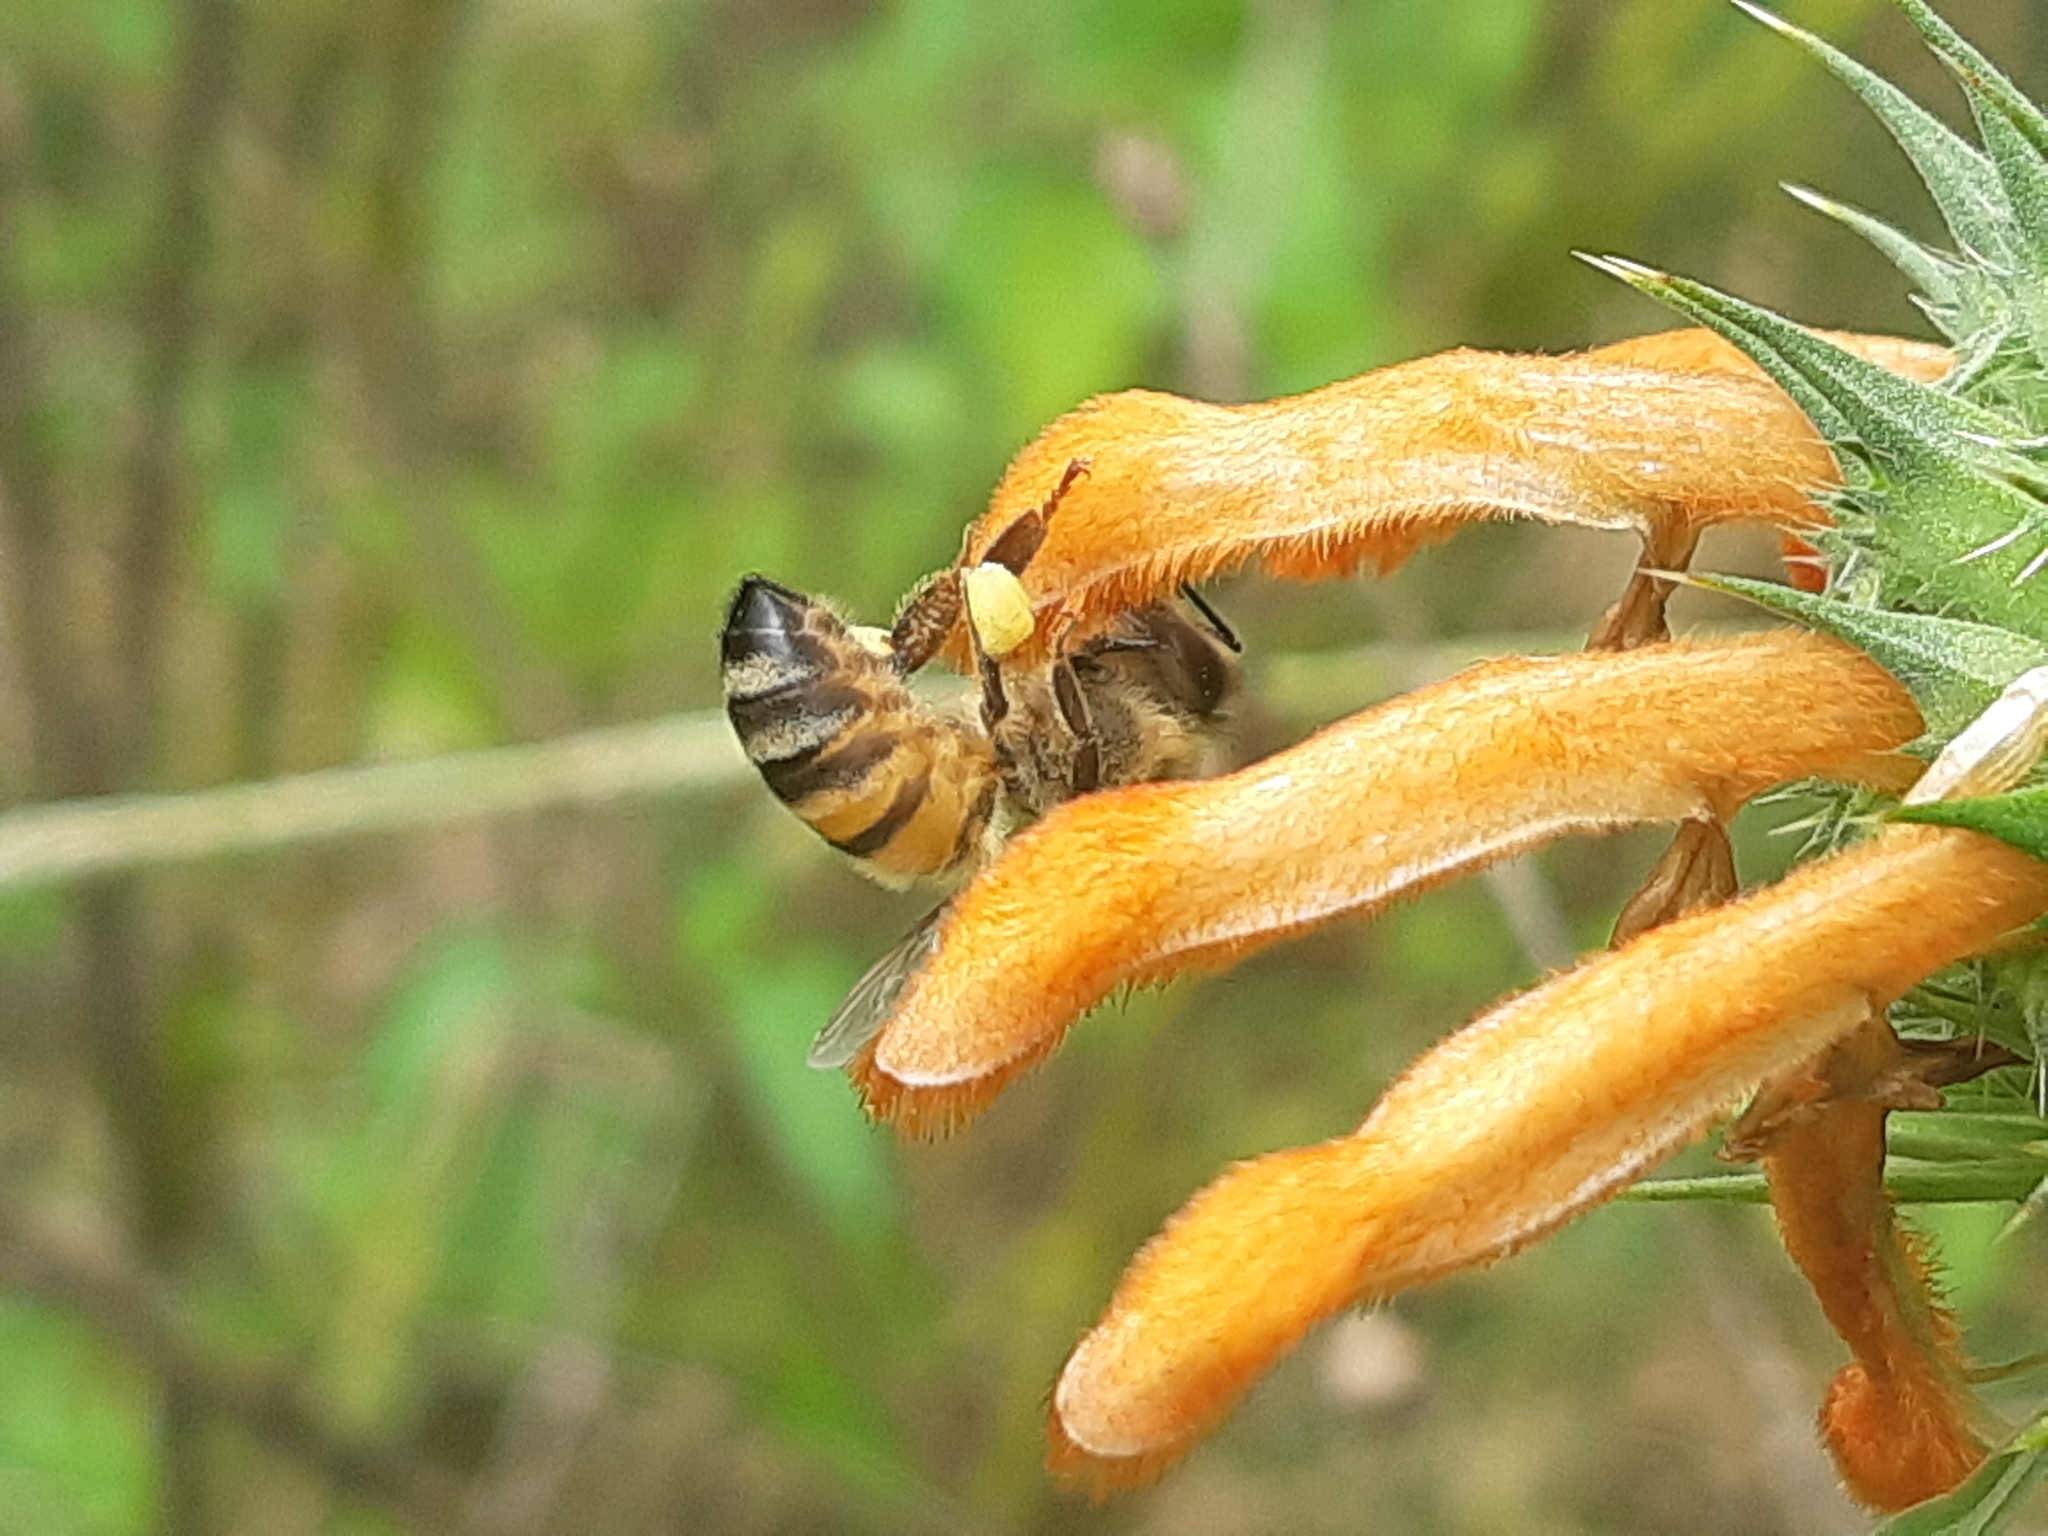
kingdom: Animalia
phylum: Arthropoda
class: Insecta
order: Hymenoptera
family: Apidae
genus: Apis
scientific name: Apis mellifera
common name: Honey bee
